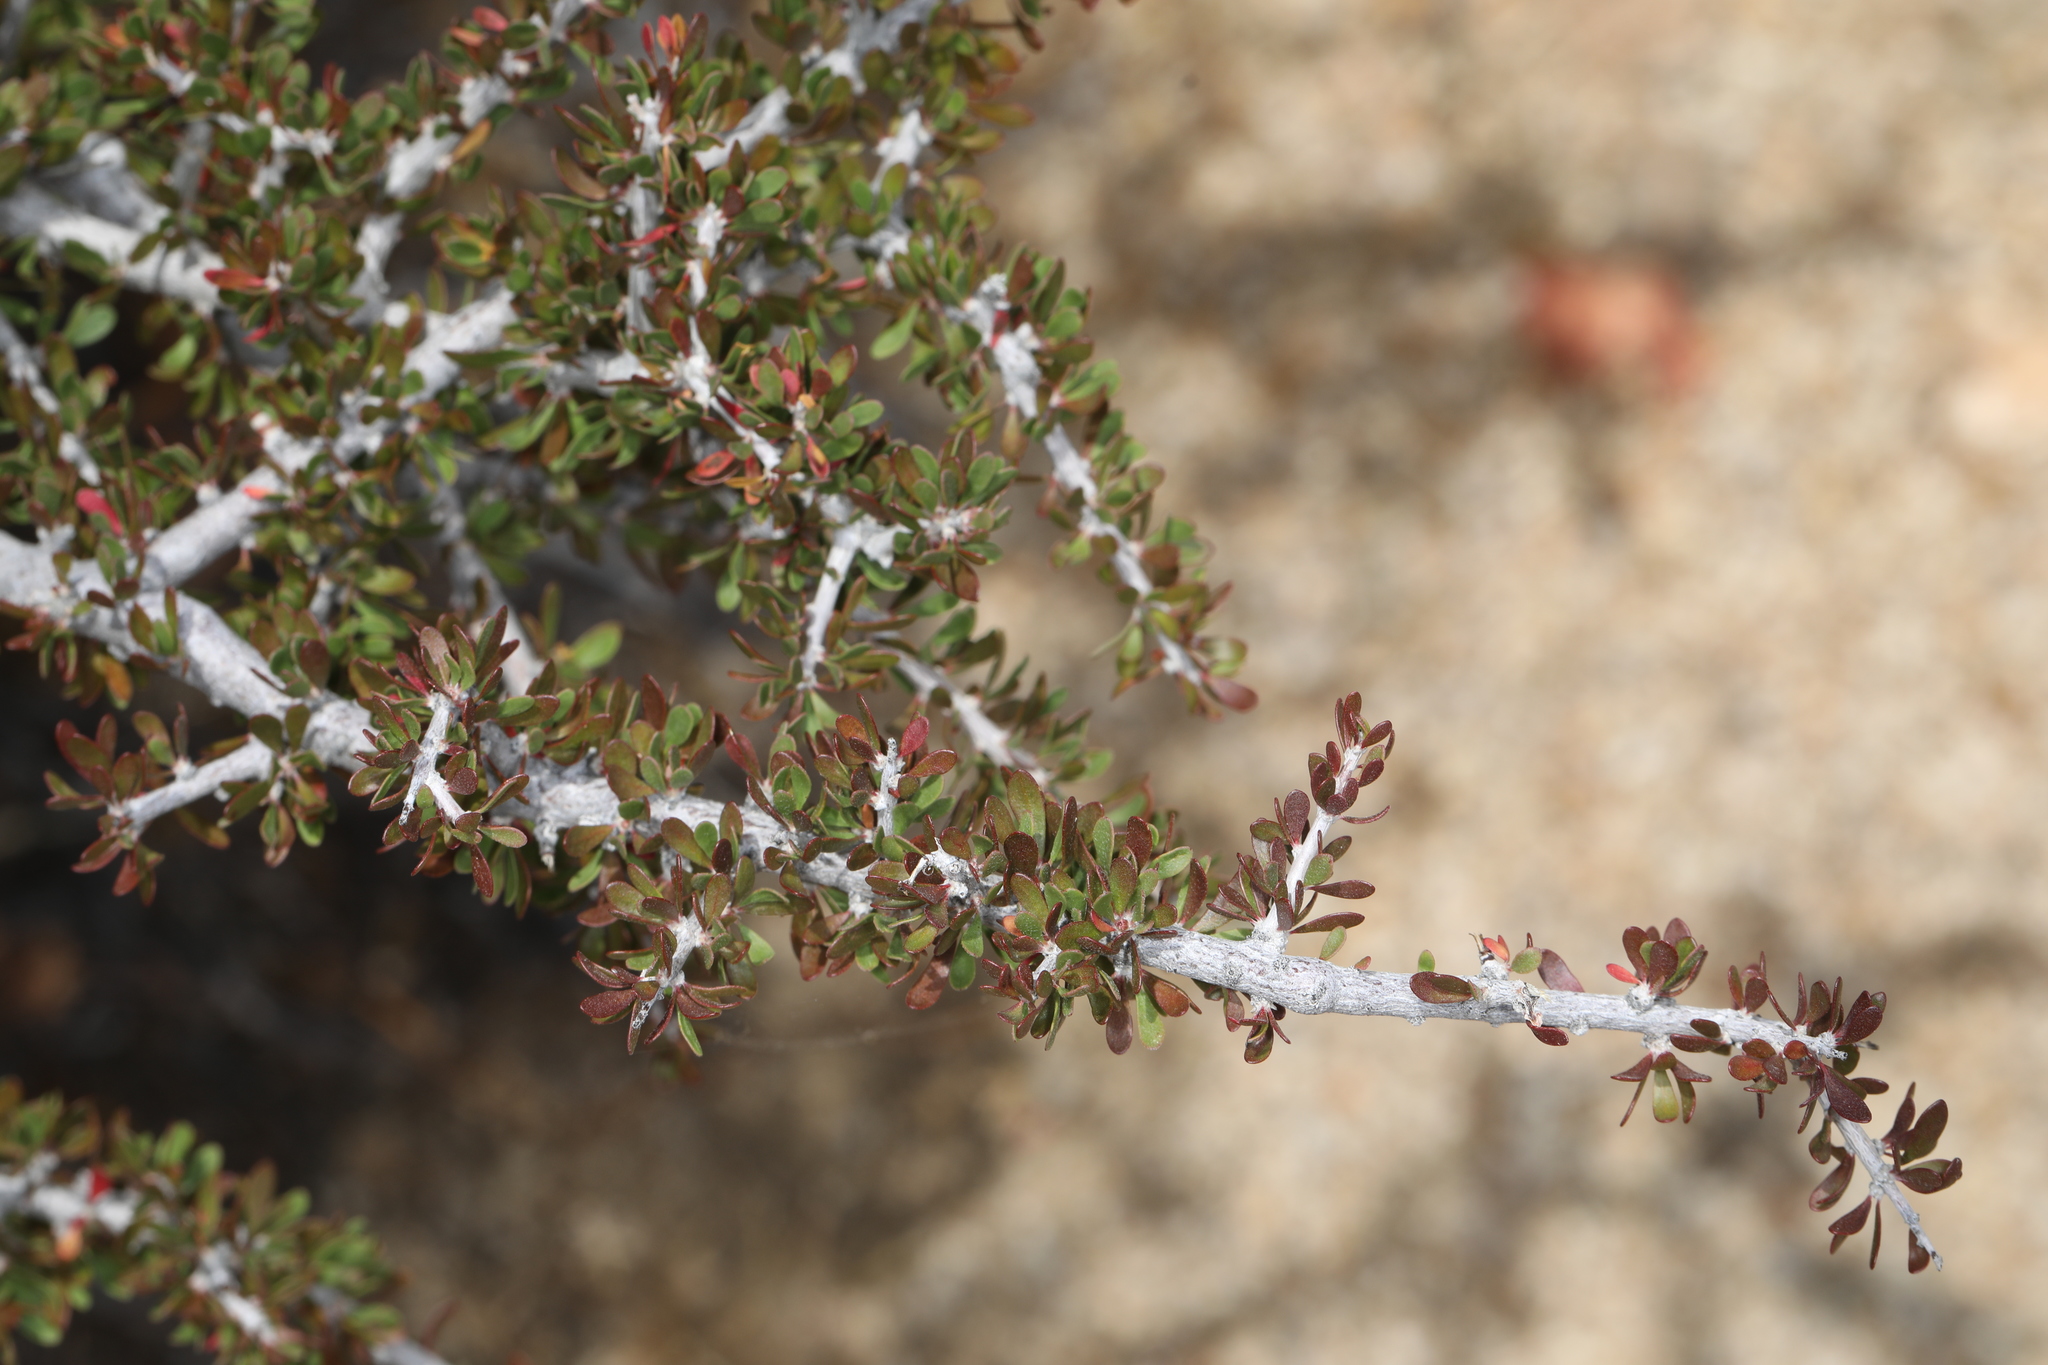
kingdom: Plantae
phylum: Tracheophyta
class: Magnoliopsida
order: Malpighiales
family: Picrodendraceae
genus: Tetracoccus
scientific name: Tetracoccus hallii
